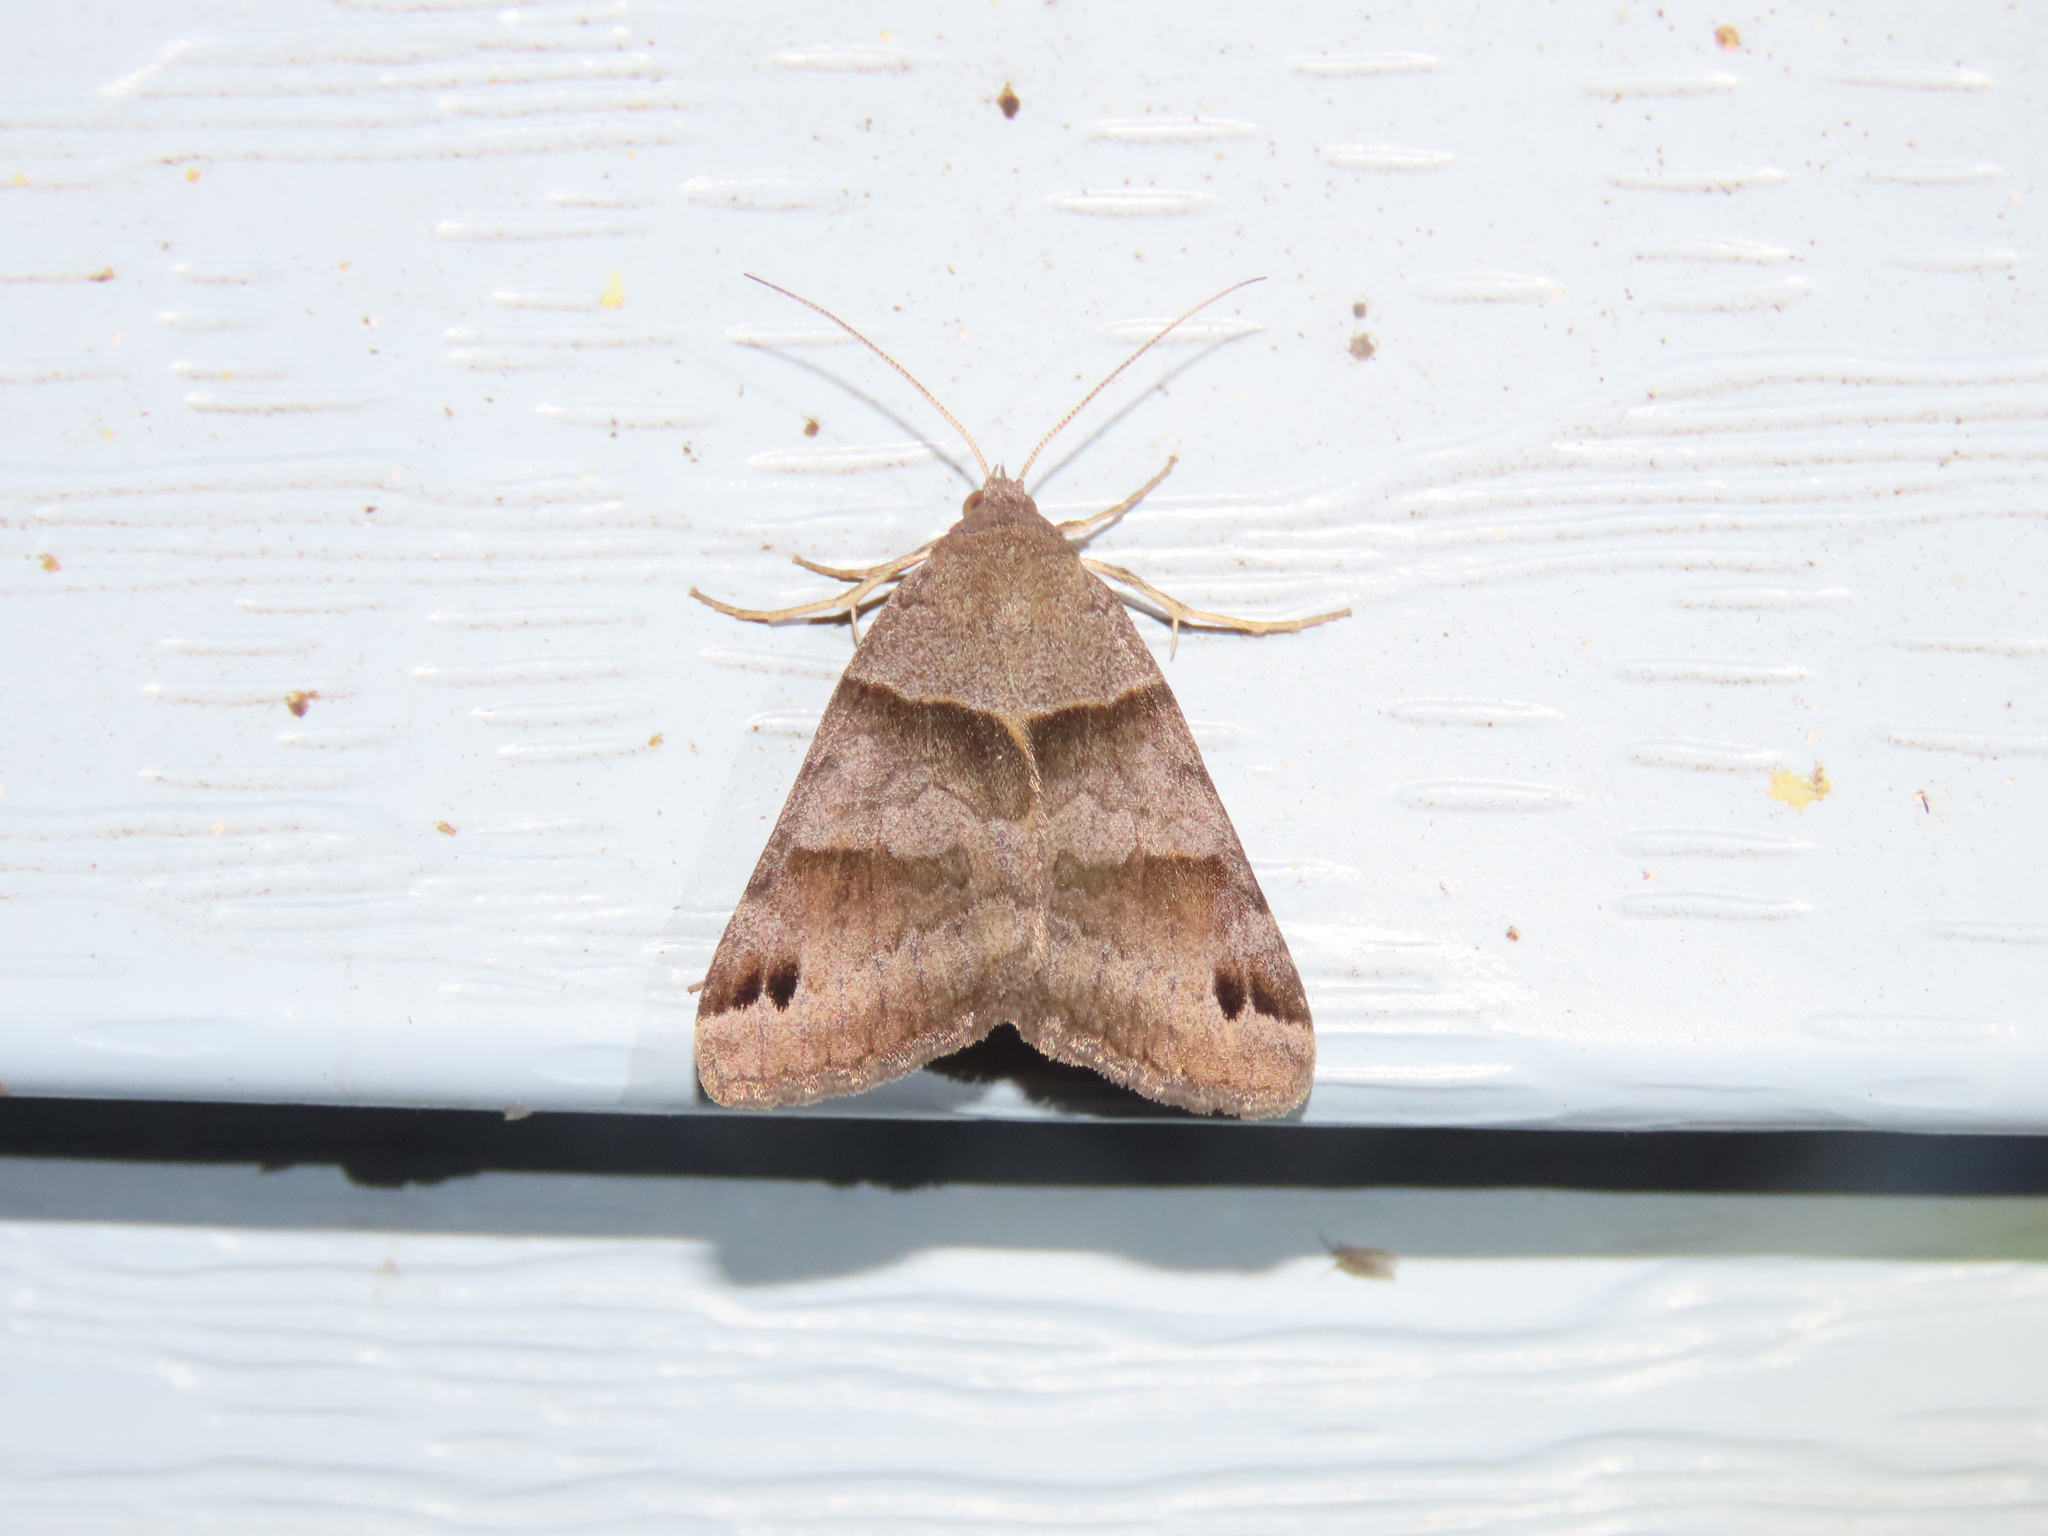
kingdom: Animalia
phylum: Arthropoda
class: Insecta
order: Lepidoptera
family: Erebidae
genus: Caenurgina
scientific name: Caenurgina crassiuscula
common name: Double-barred
